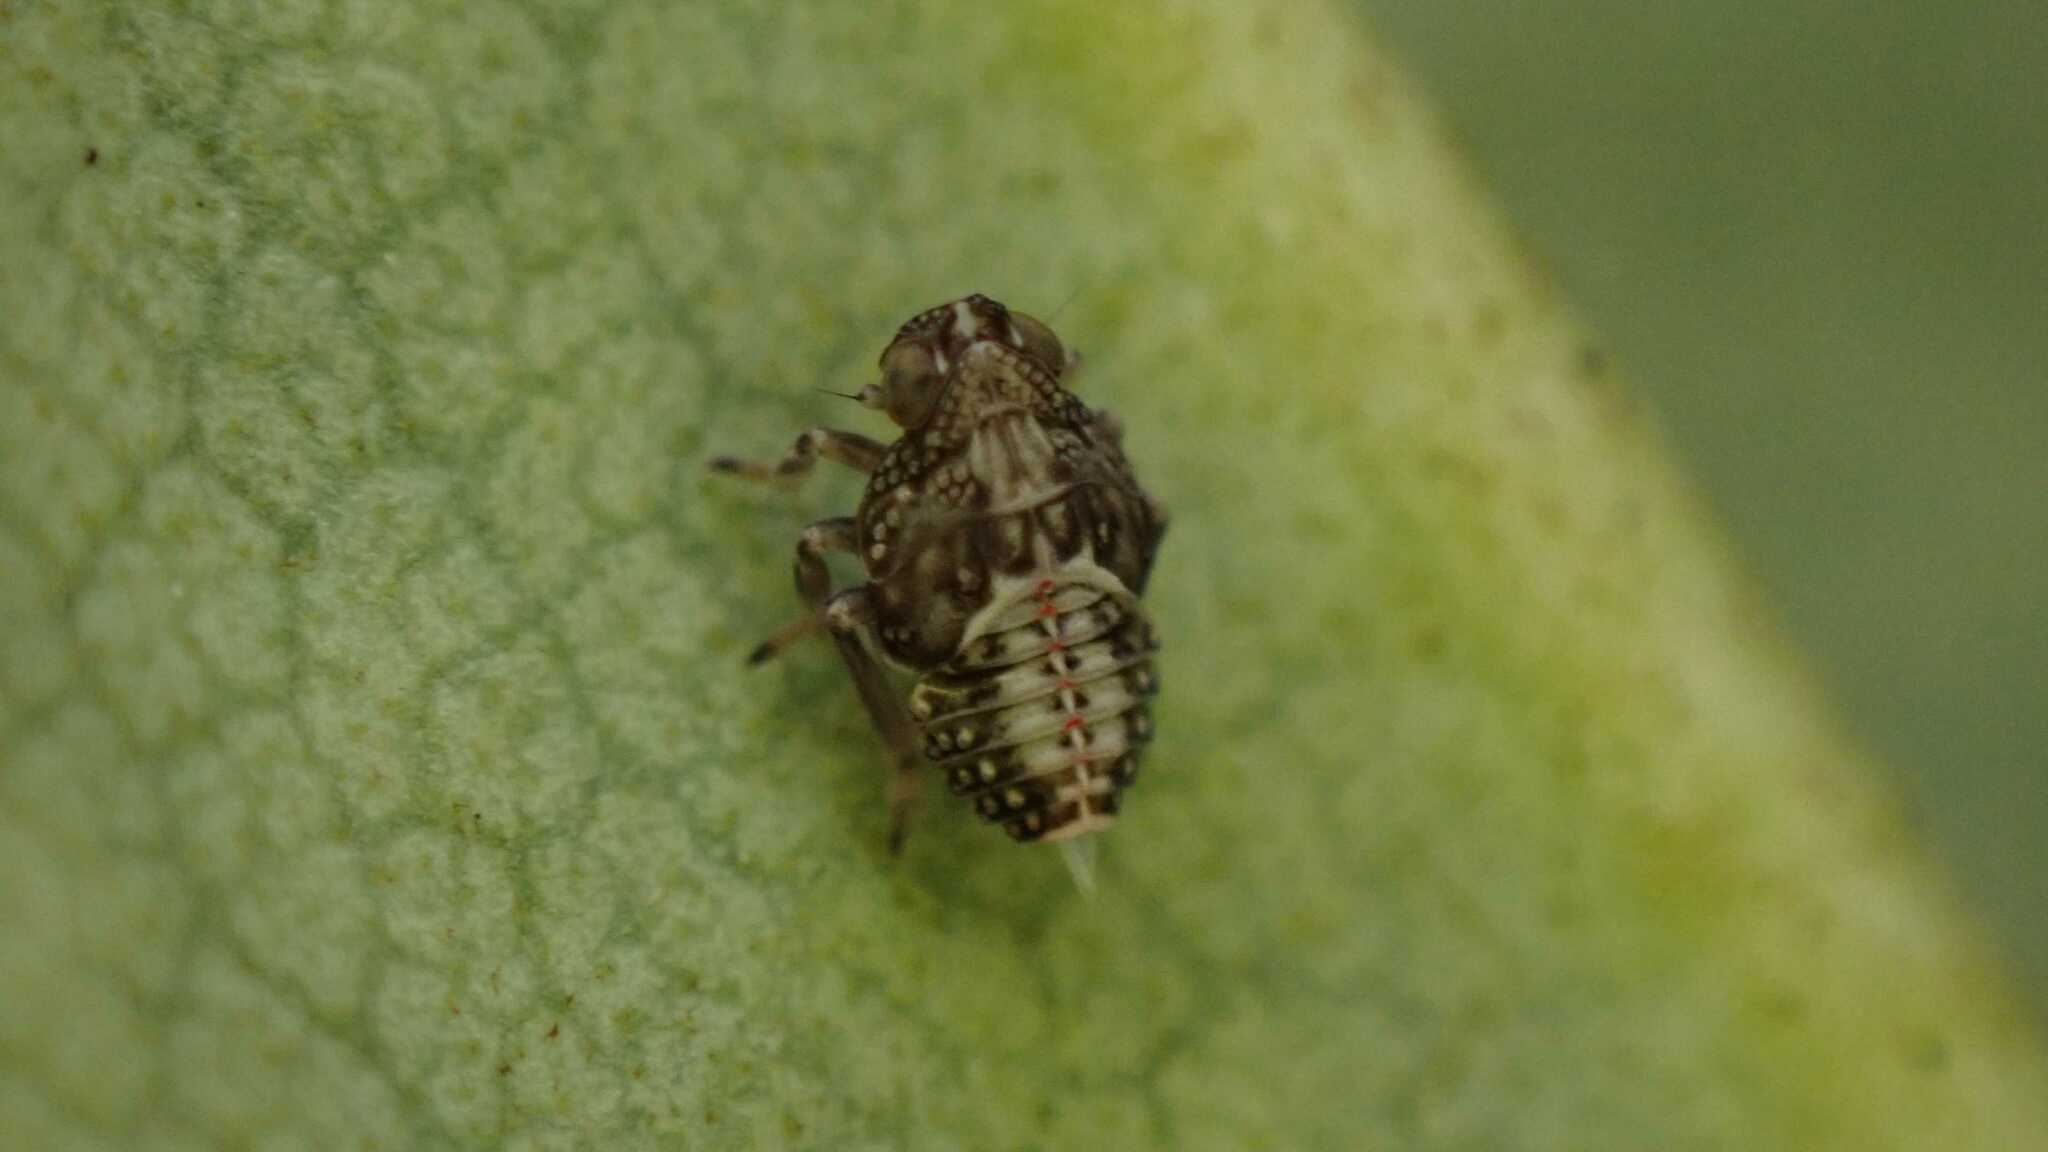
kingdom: Animalia
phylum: Arthropoda
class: Insecta
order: Hemiptera
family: Issidae
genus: Issus
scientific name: Issus coleoptratus
